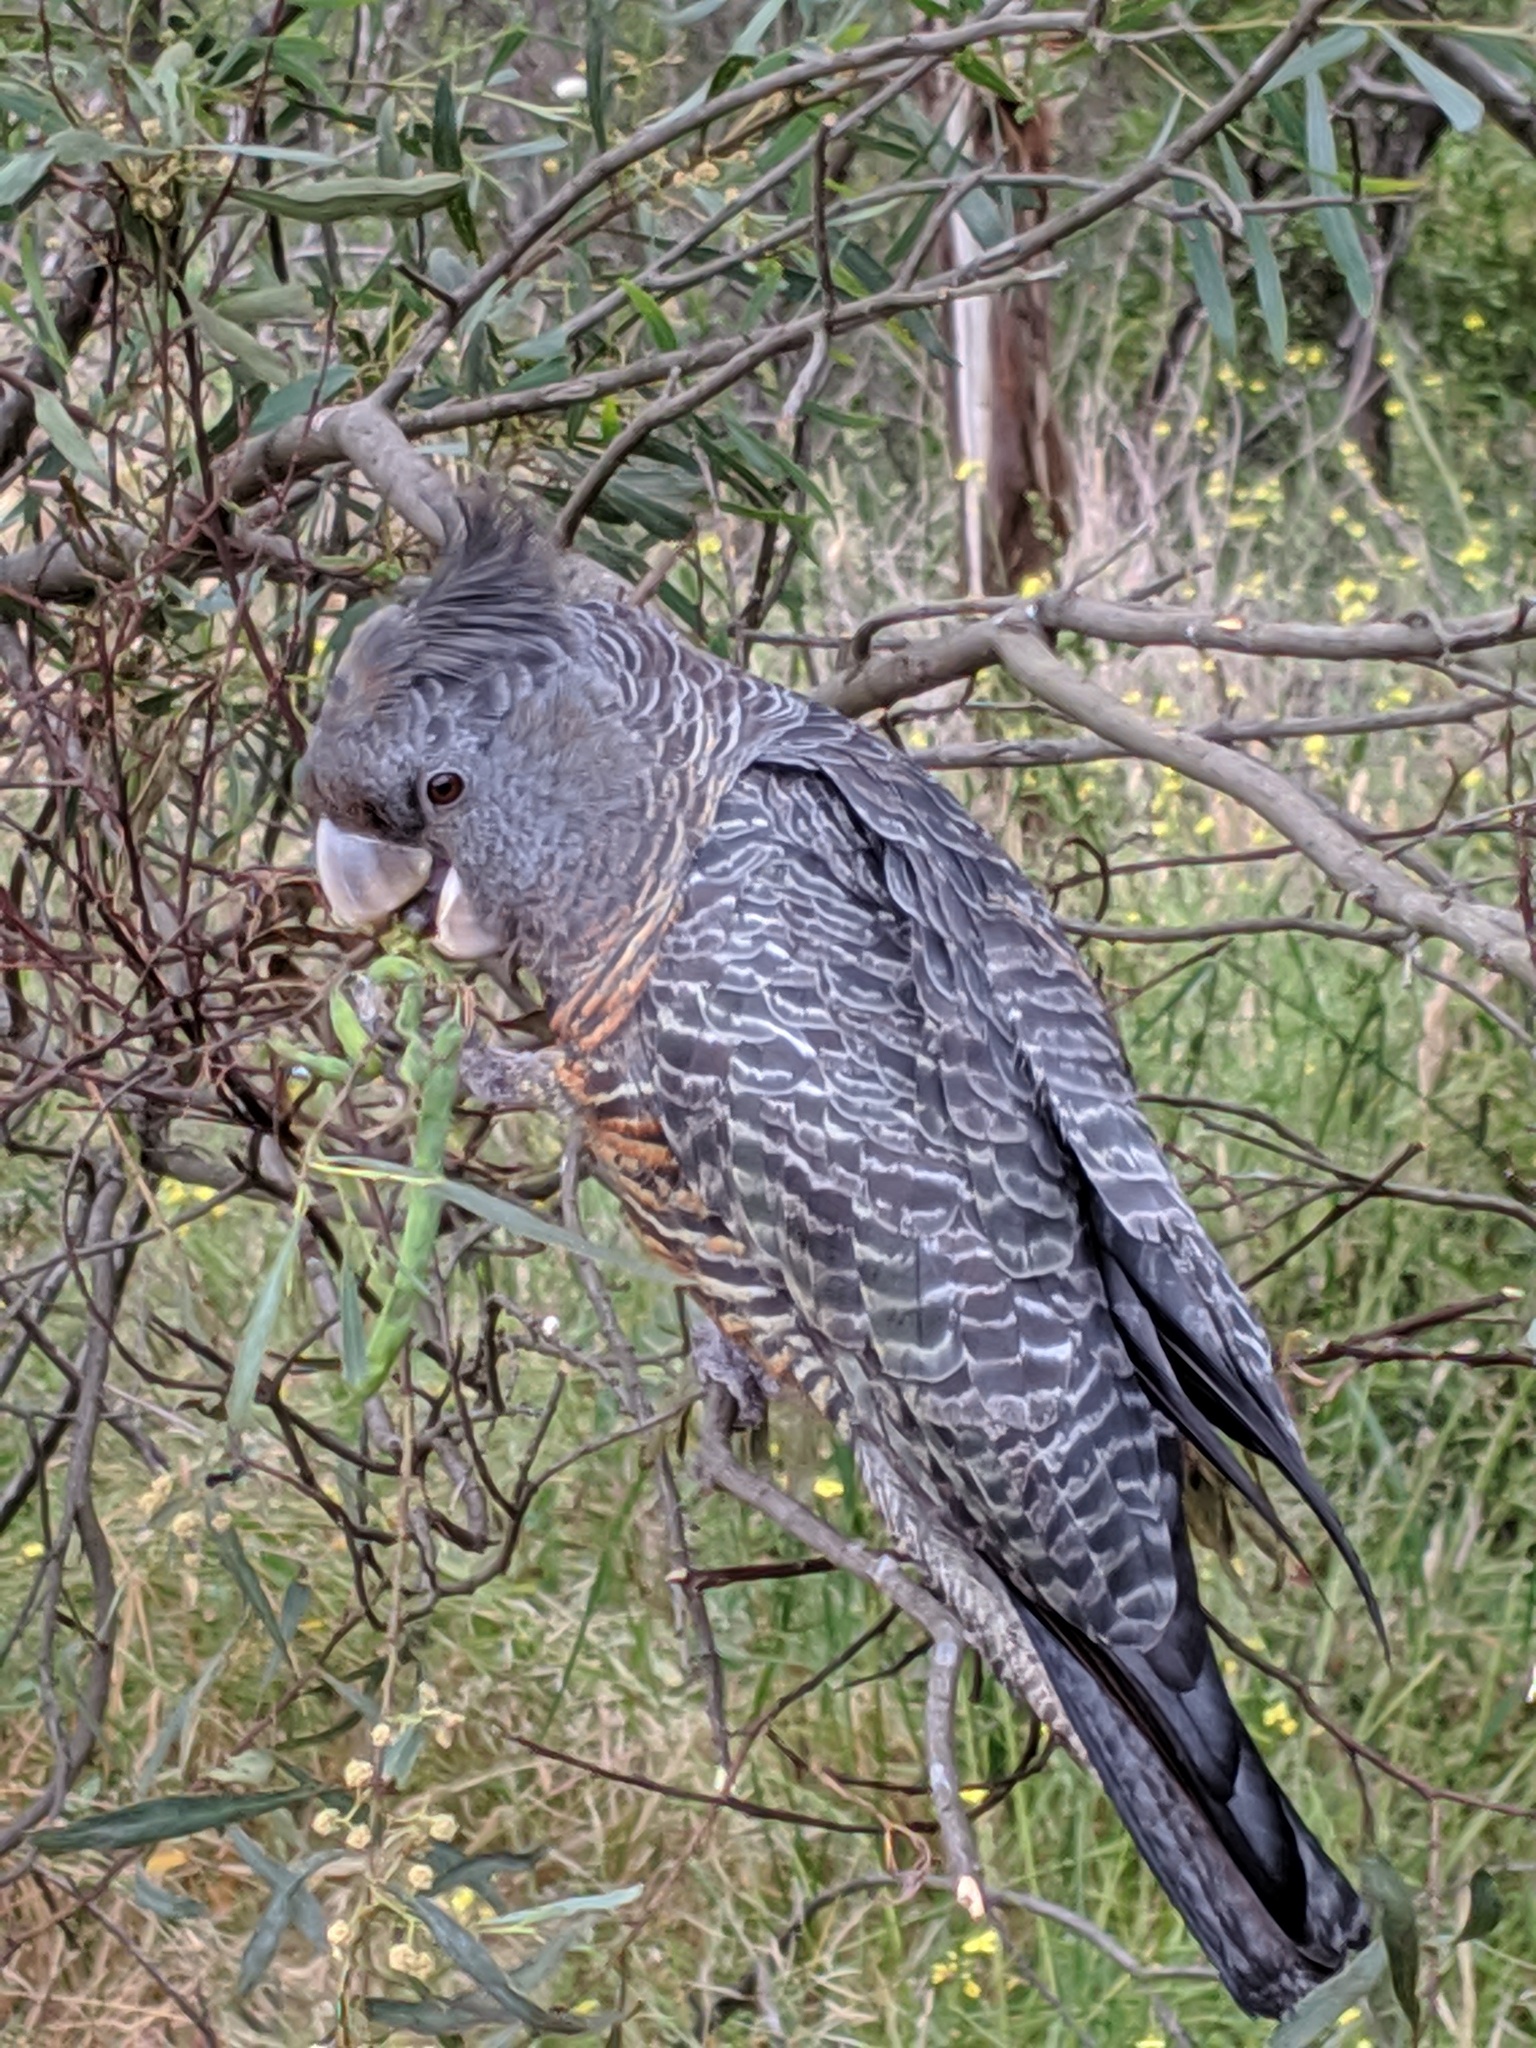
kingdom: Animalia
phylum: Chordata
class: Aves
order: Psittaciformes
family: Psittacidae
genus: Callocephalon
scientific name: Callocephalon fimbriatum
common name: Gang-gang cockatoo
